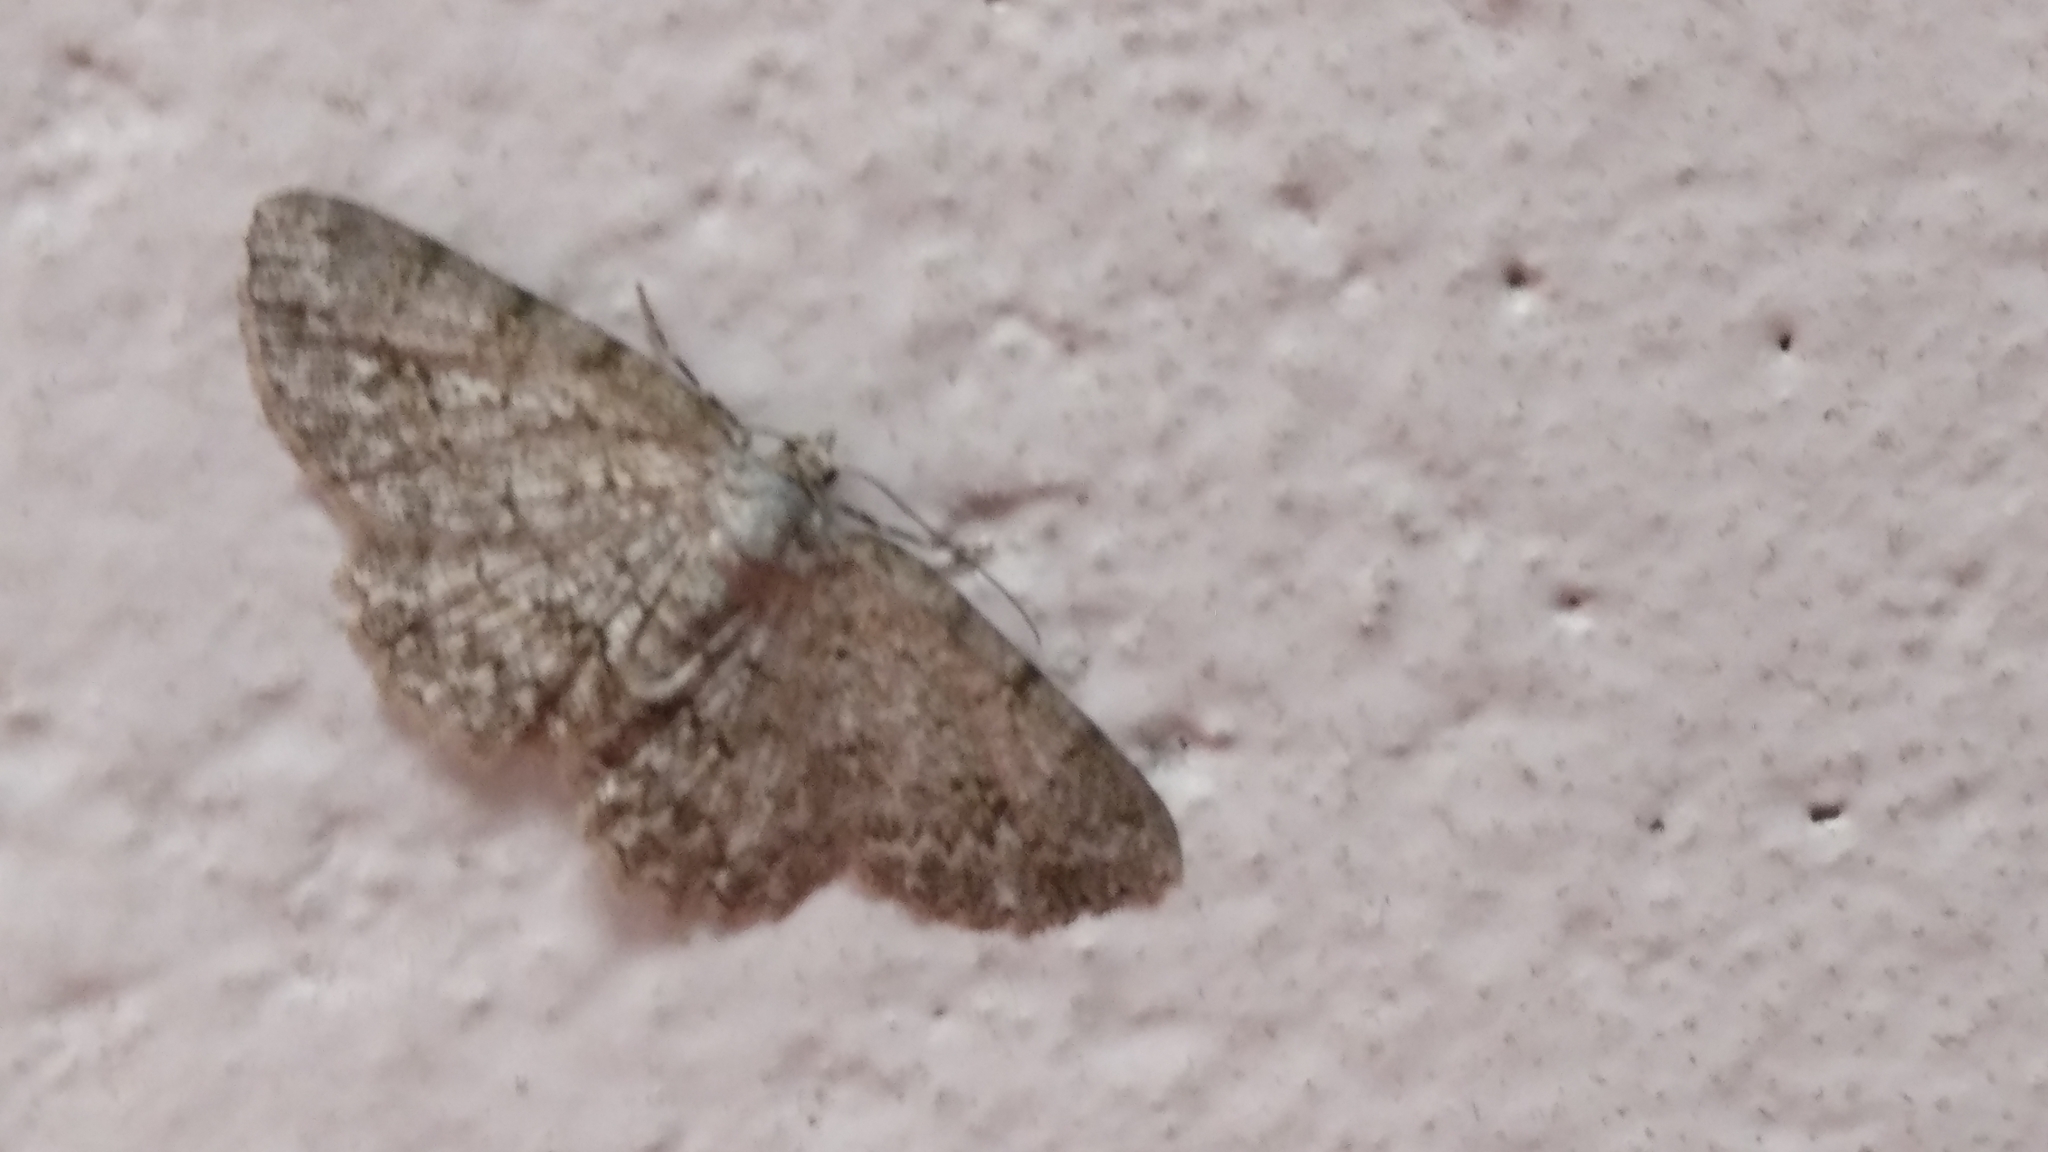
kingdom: Animalia
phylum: Arthropoda
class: Insecta
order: Lepidoptera
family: Geometridae
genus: Hypomecis
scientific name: Hypomecis pallida
